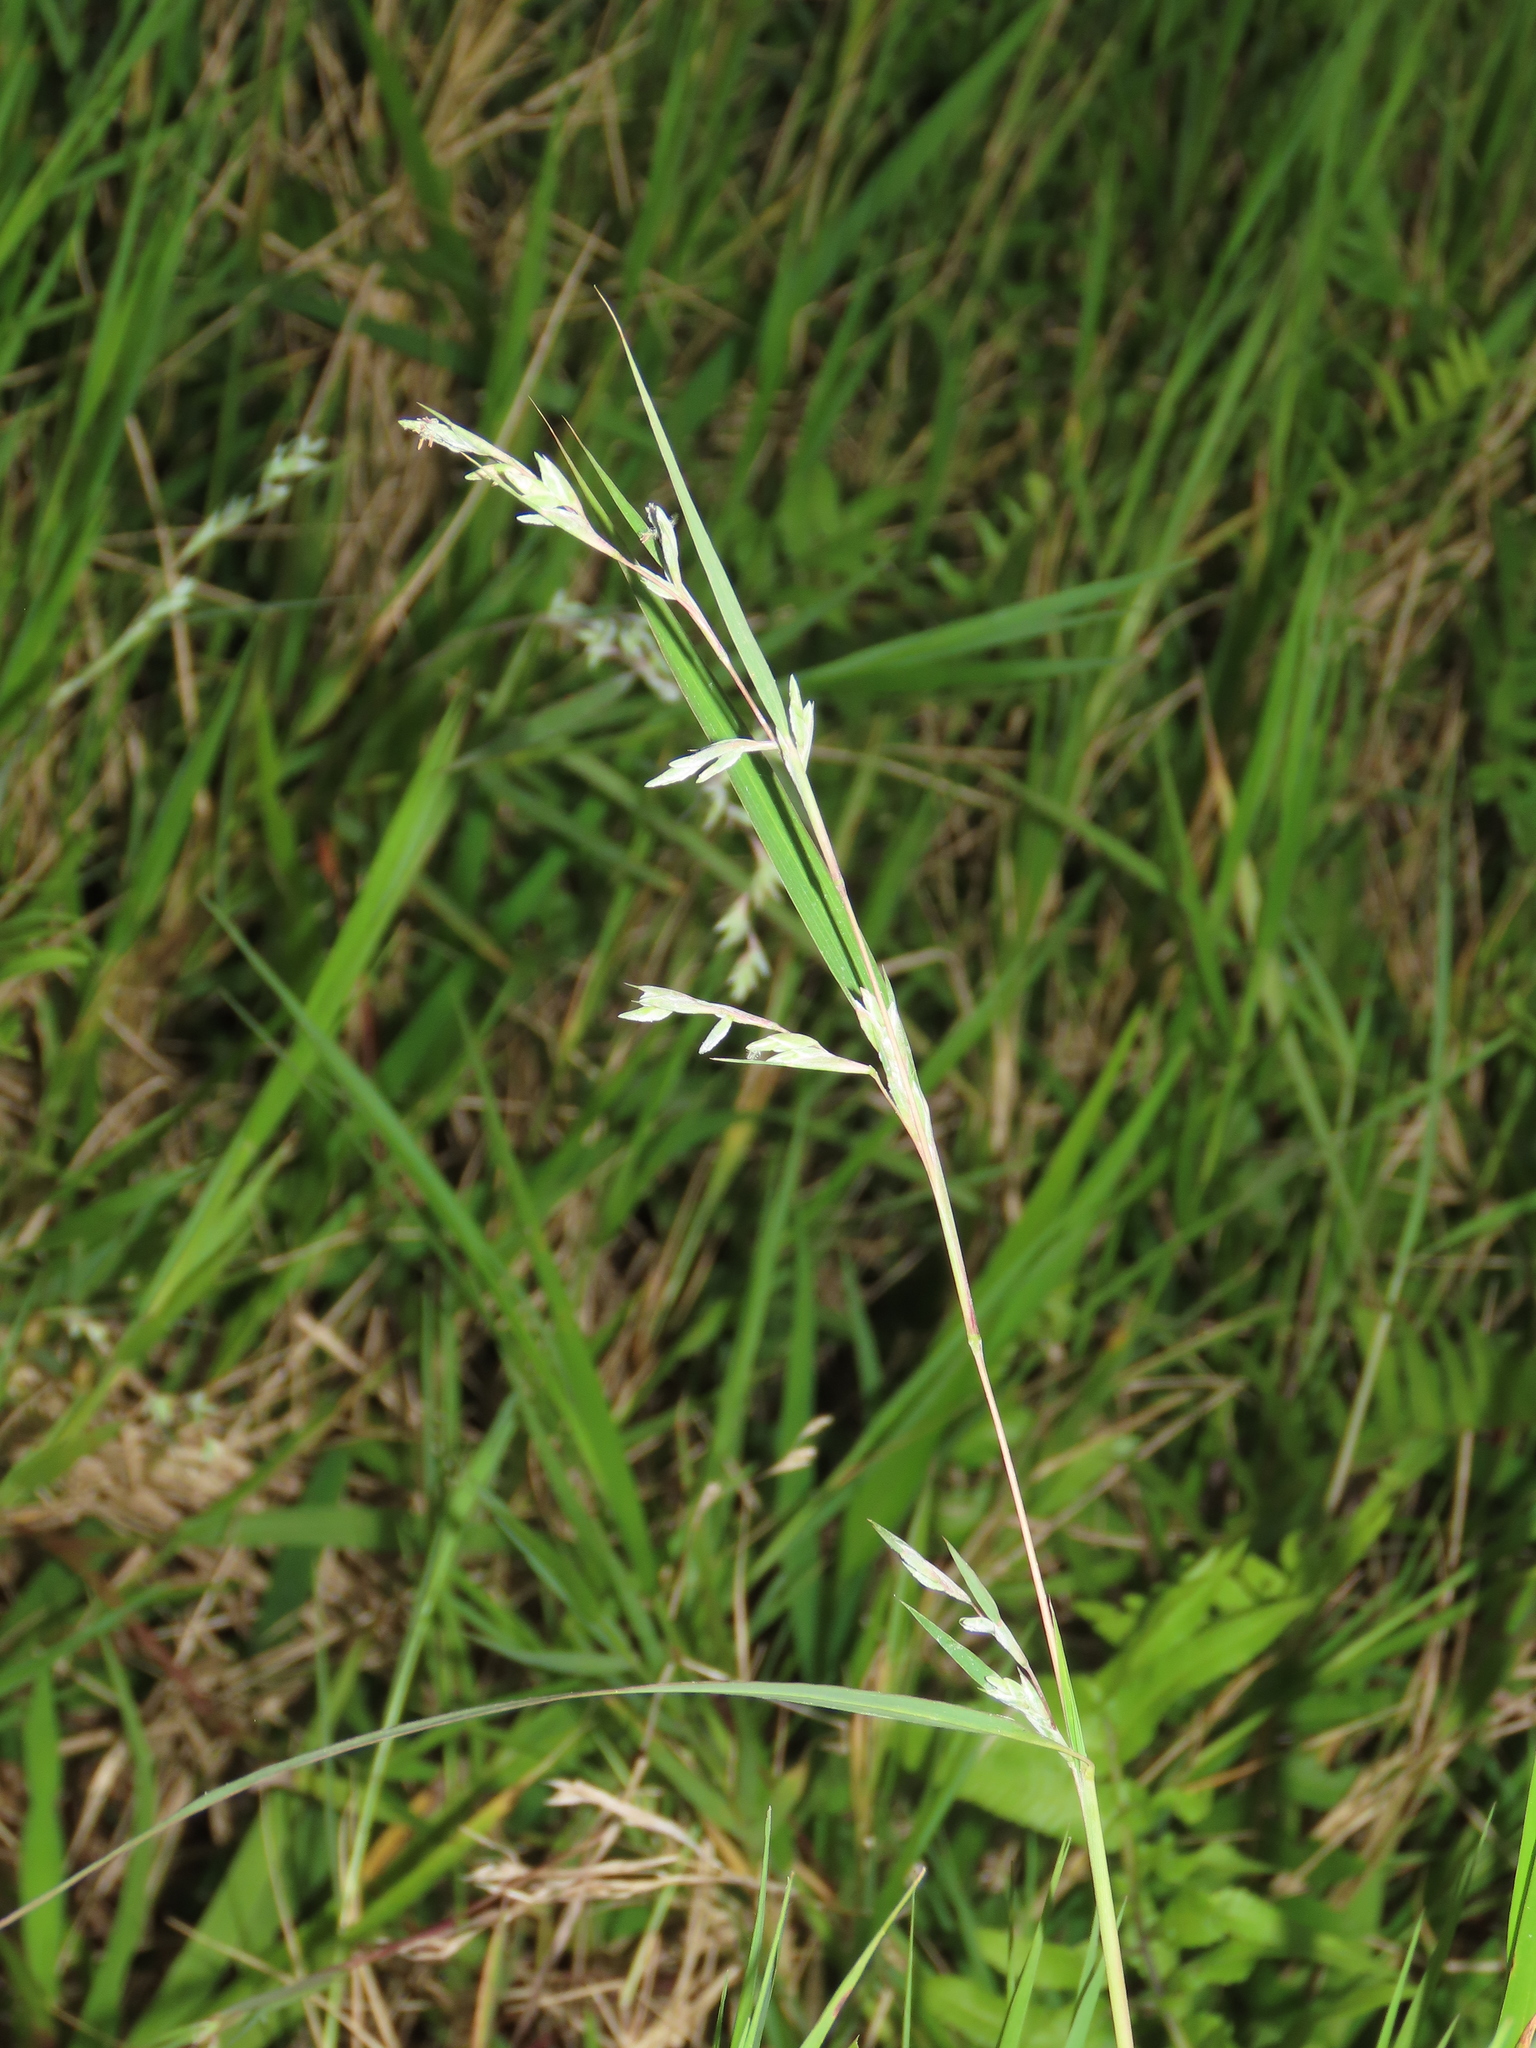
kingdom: Plantae
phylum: Tracheophyta
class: Liliopsida
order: Poales
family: Poaceae
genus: Apluda
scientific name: Apluda mutica
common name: Mauritian grass
